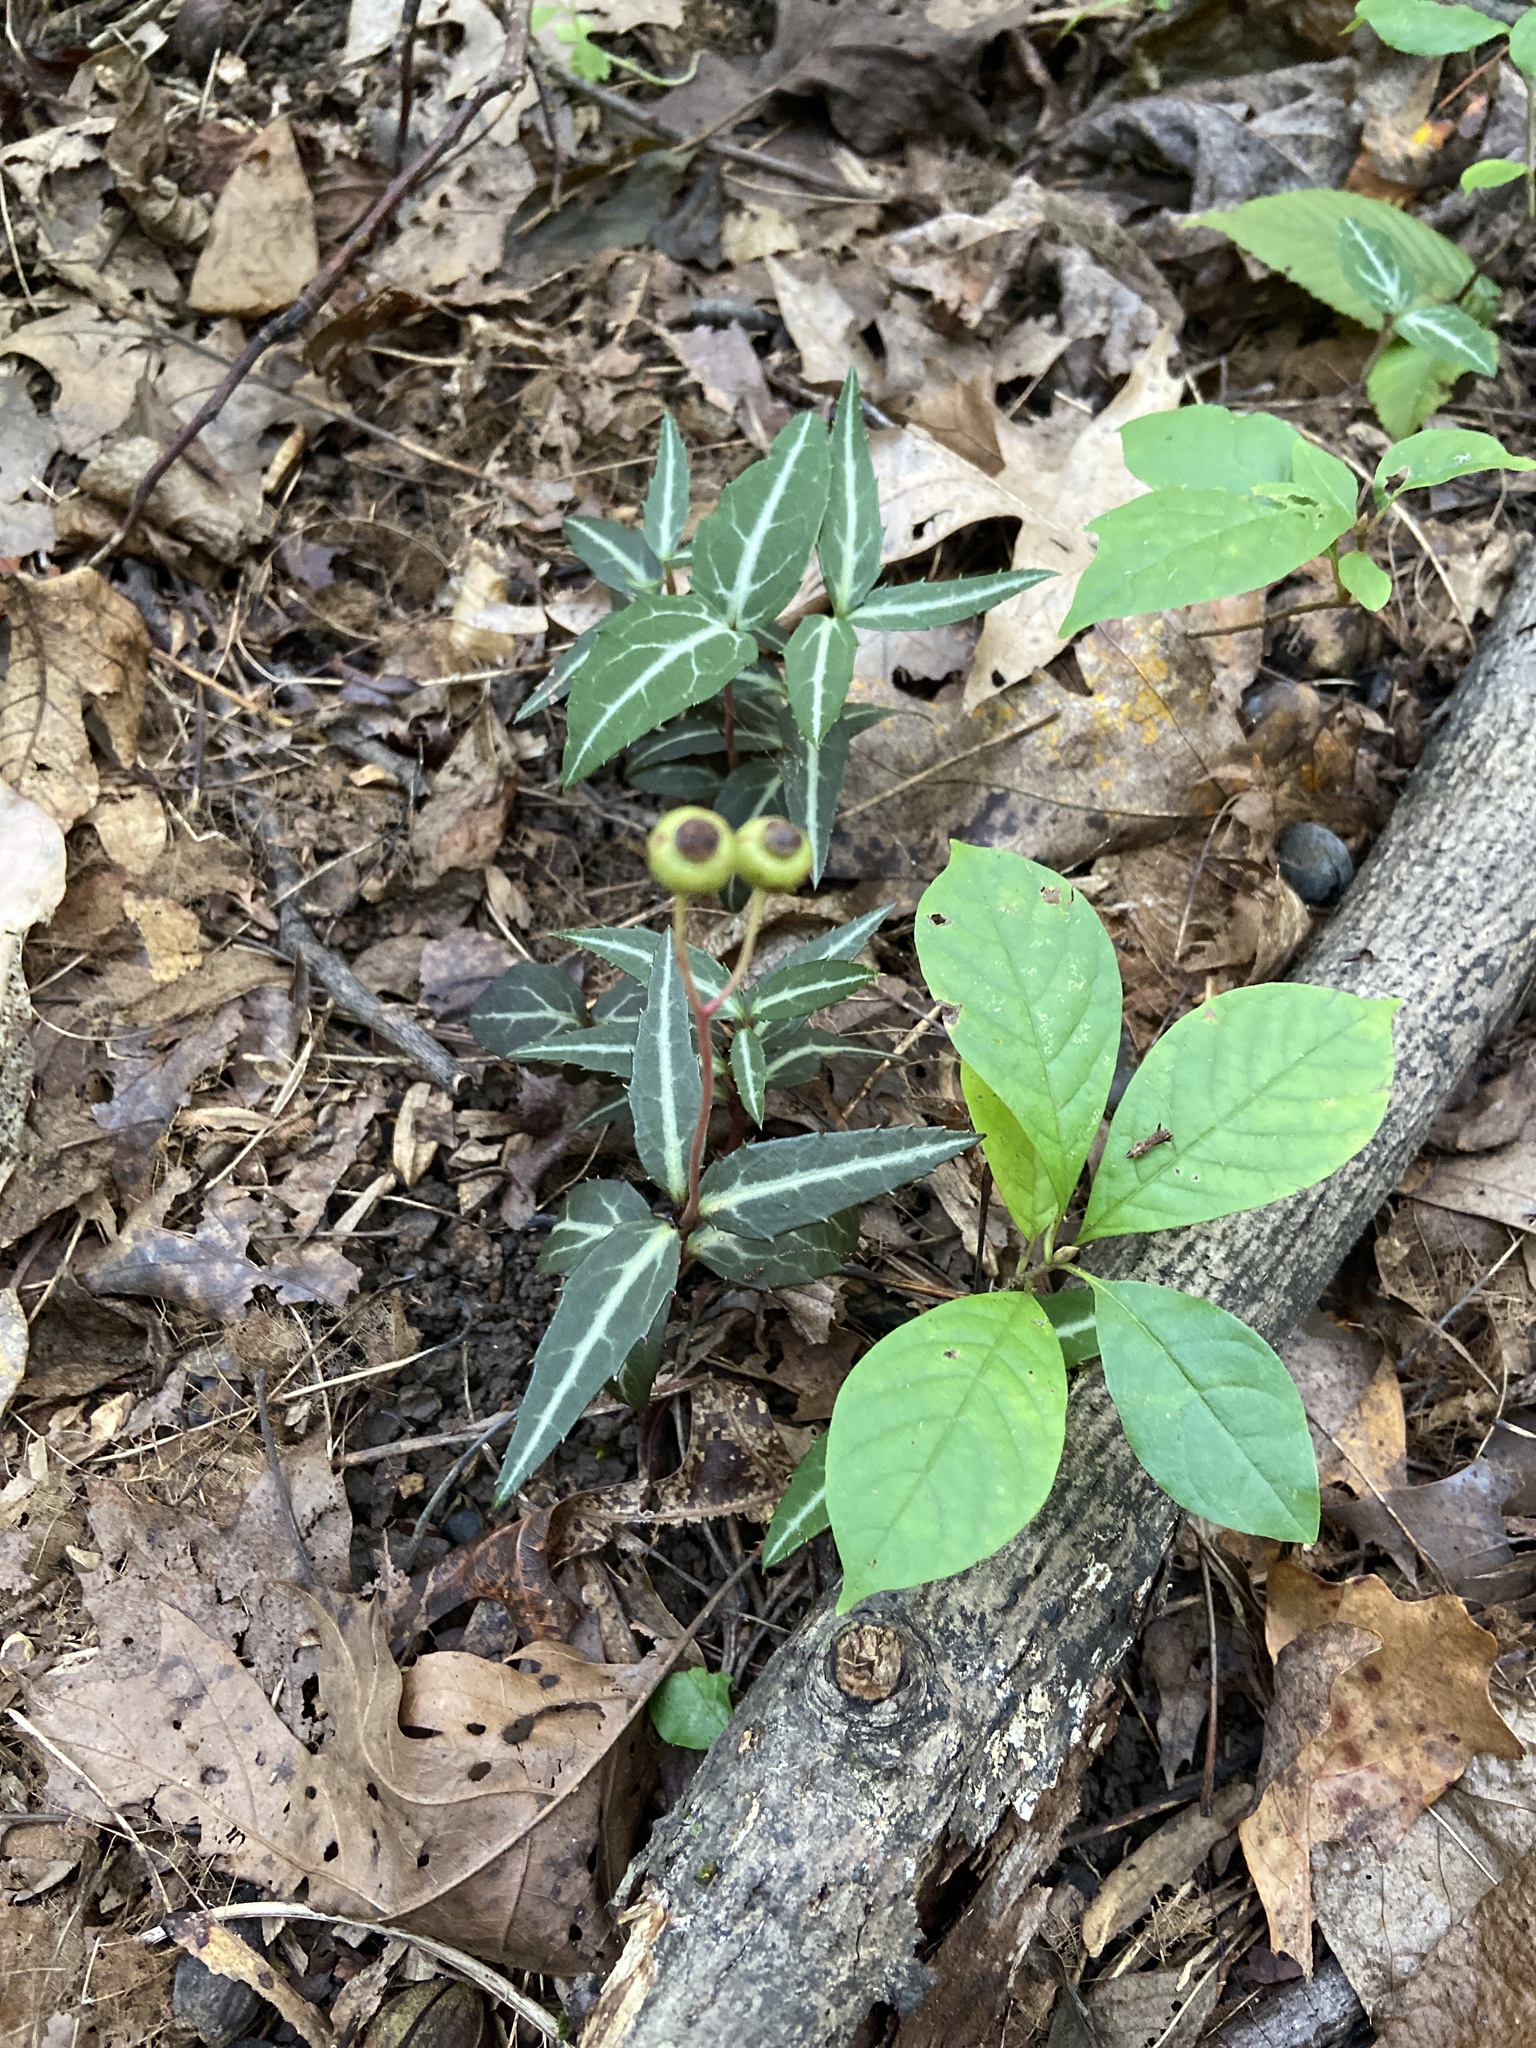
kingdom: Plantae
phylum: Tracheophyta
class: Magnoliopsida
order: Ericales
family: Ericaceae
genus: Chimaphila
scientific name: Chimaphila maculata
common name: Spotted pipsissewa
